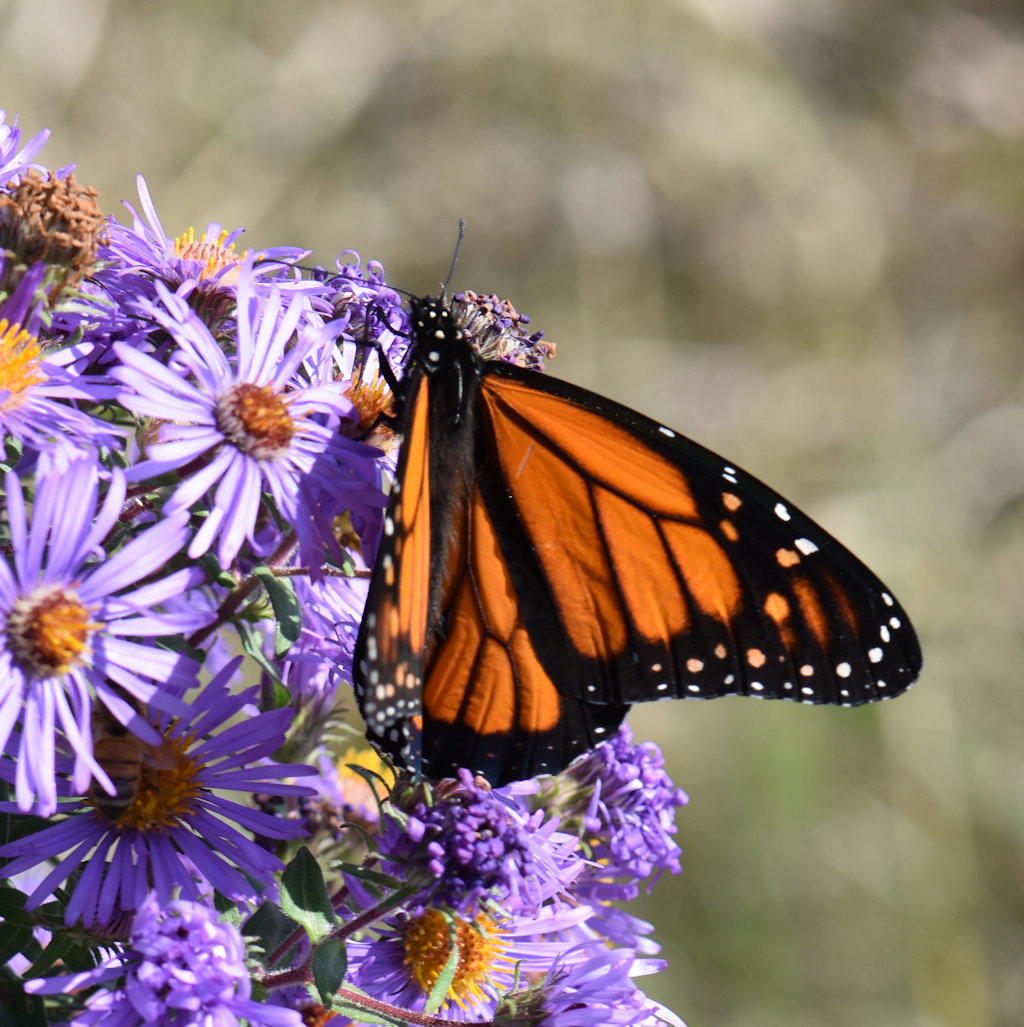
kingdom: Animalia
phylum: Arthropoda
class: Insecta
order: Lepidoptera
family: Nymphalidae
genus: Danaus
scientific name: Danaus plexippus
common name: Monarch
